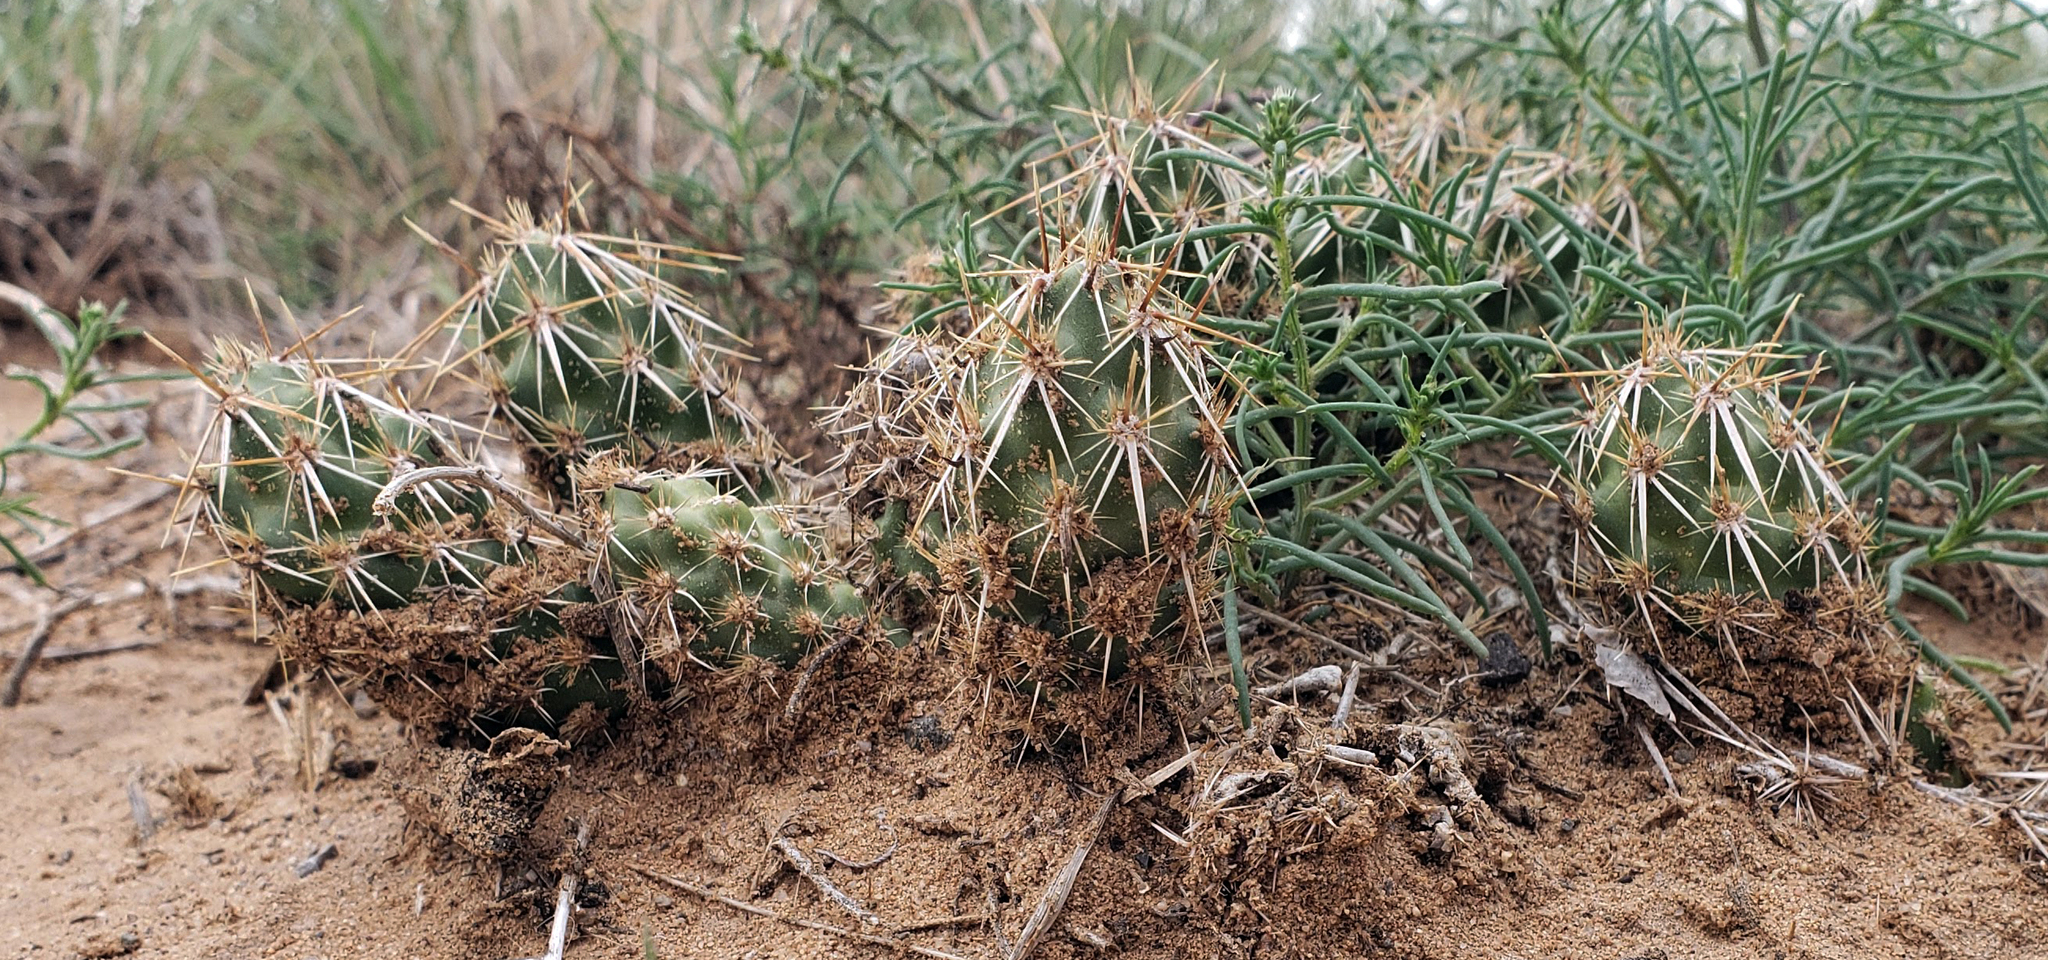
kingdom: Plantae
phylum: Tracheophyta
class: Magnoliopsida
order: Caryophyllales
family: Cactaceae
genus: Grusonia
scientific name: Grusonia clavata
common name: Club cholla
